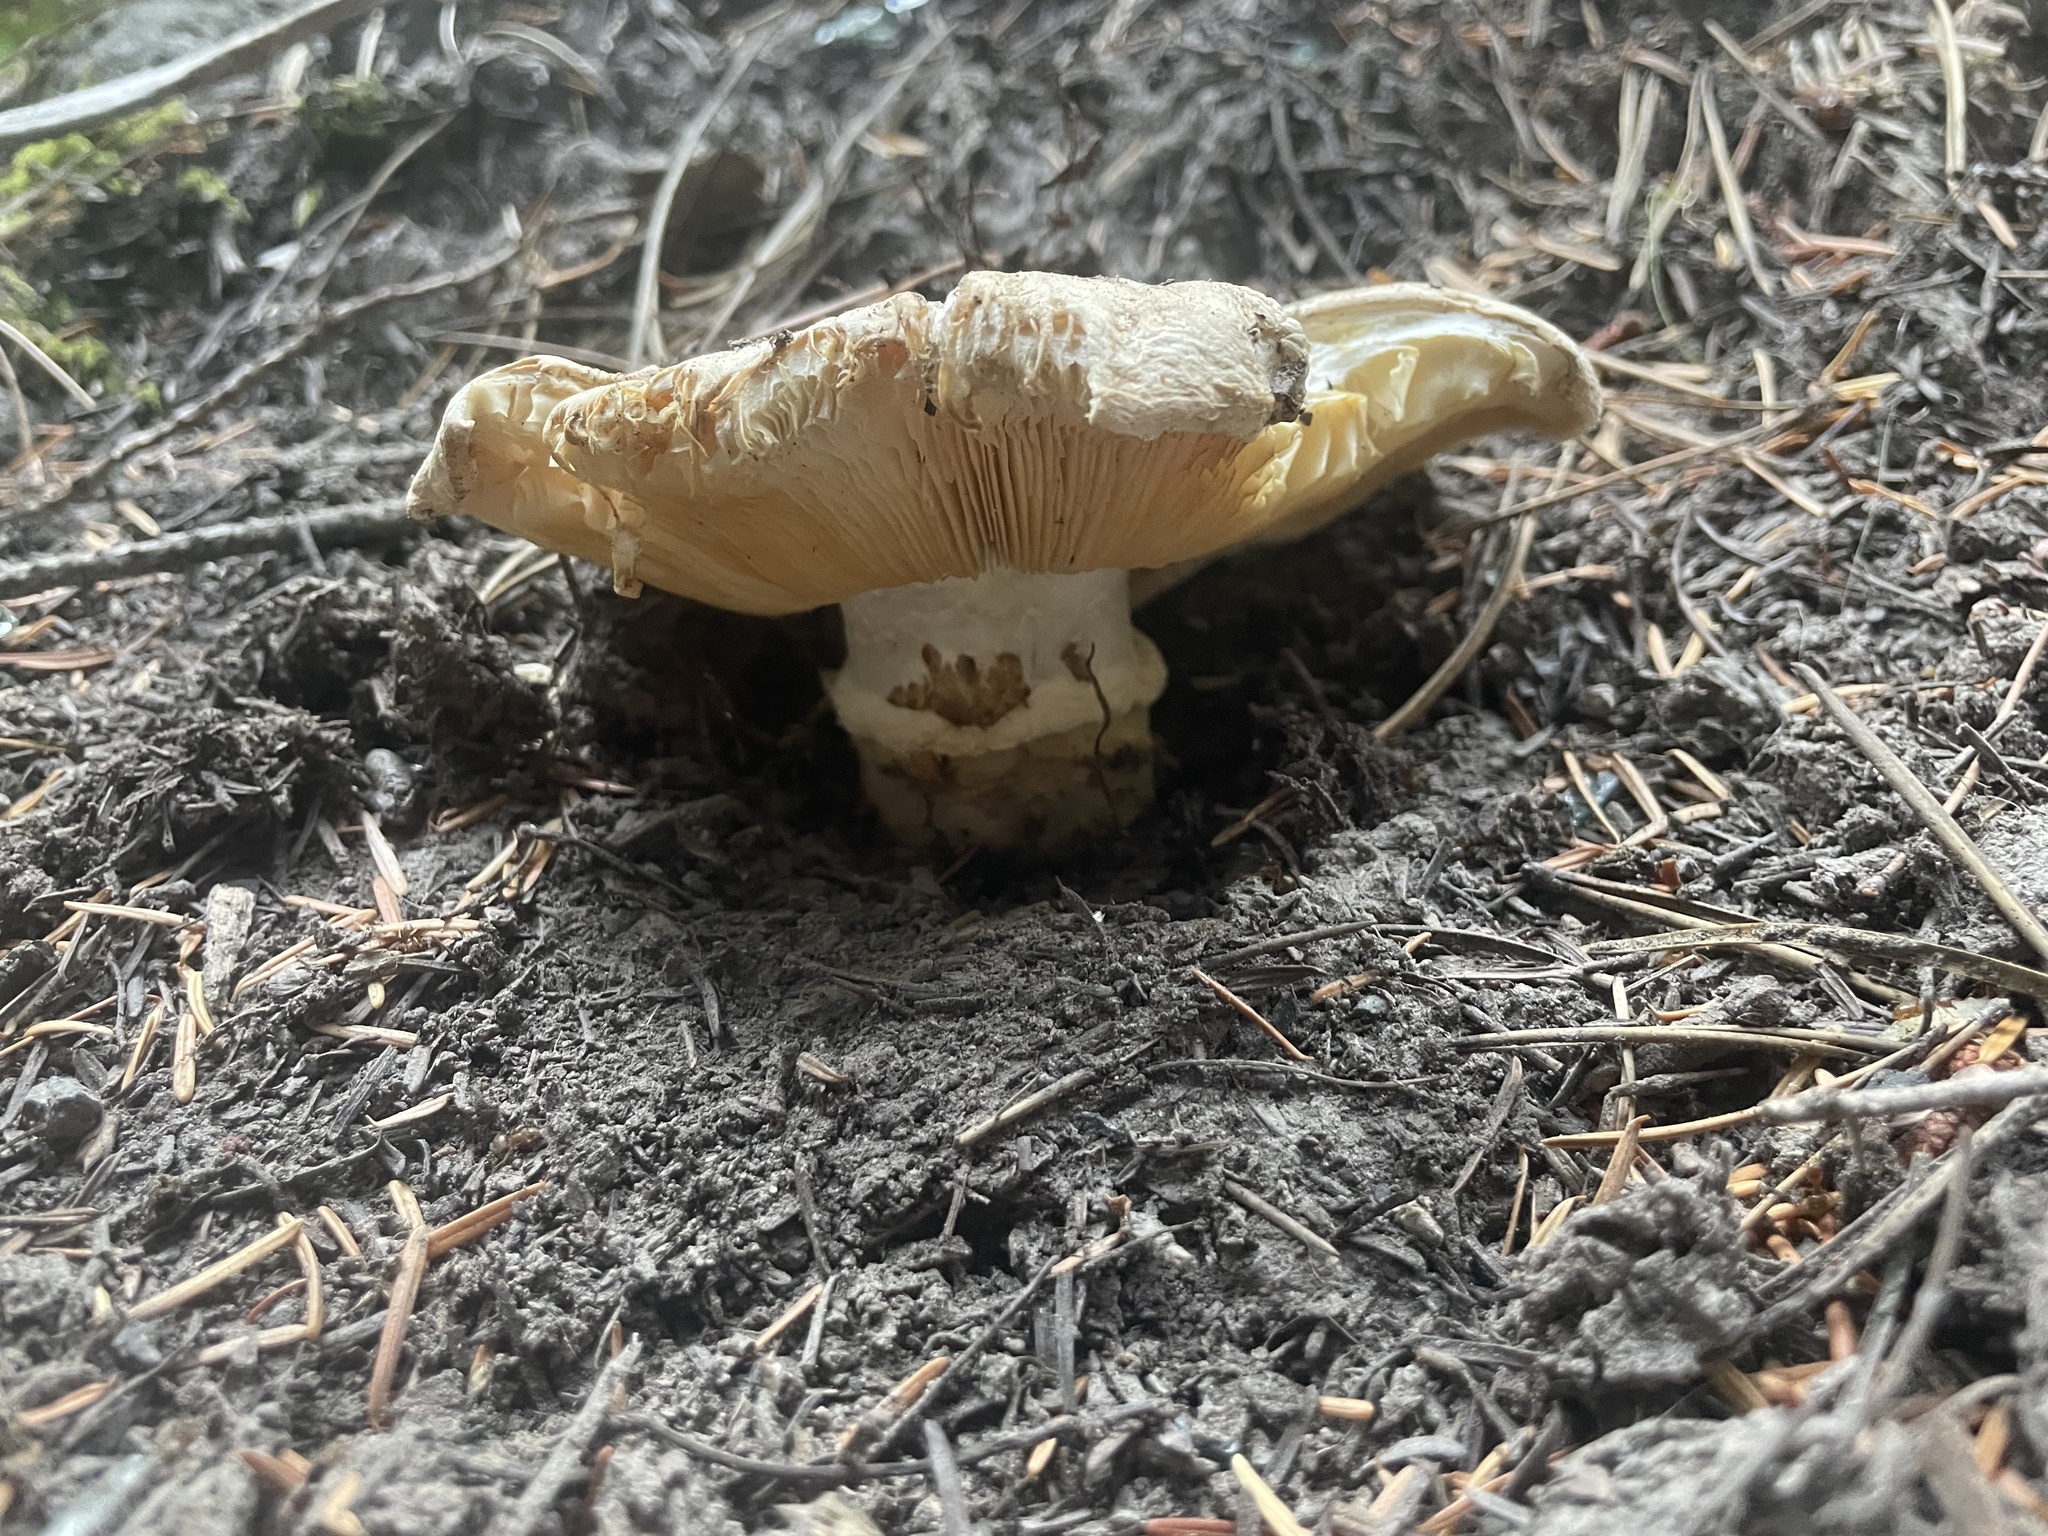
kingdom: Fungi
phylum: Basidiomycota
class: Agaricomycetes
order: Agaricales
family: Tricholomataceae
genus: Tricholoma
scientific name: Tricholoma murrillianum
